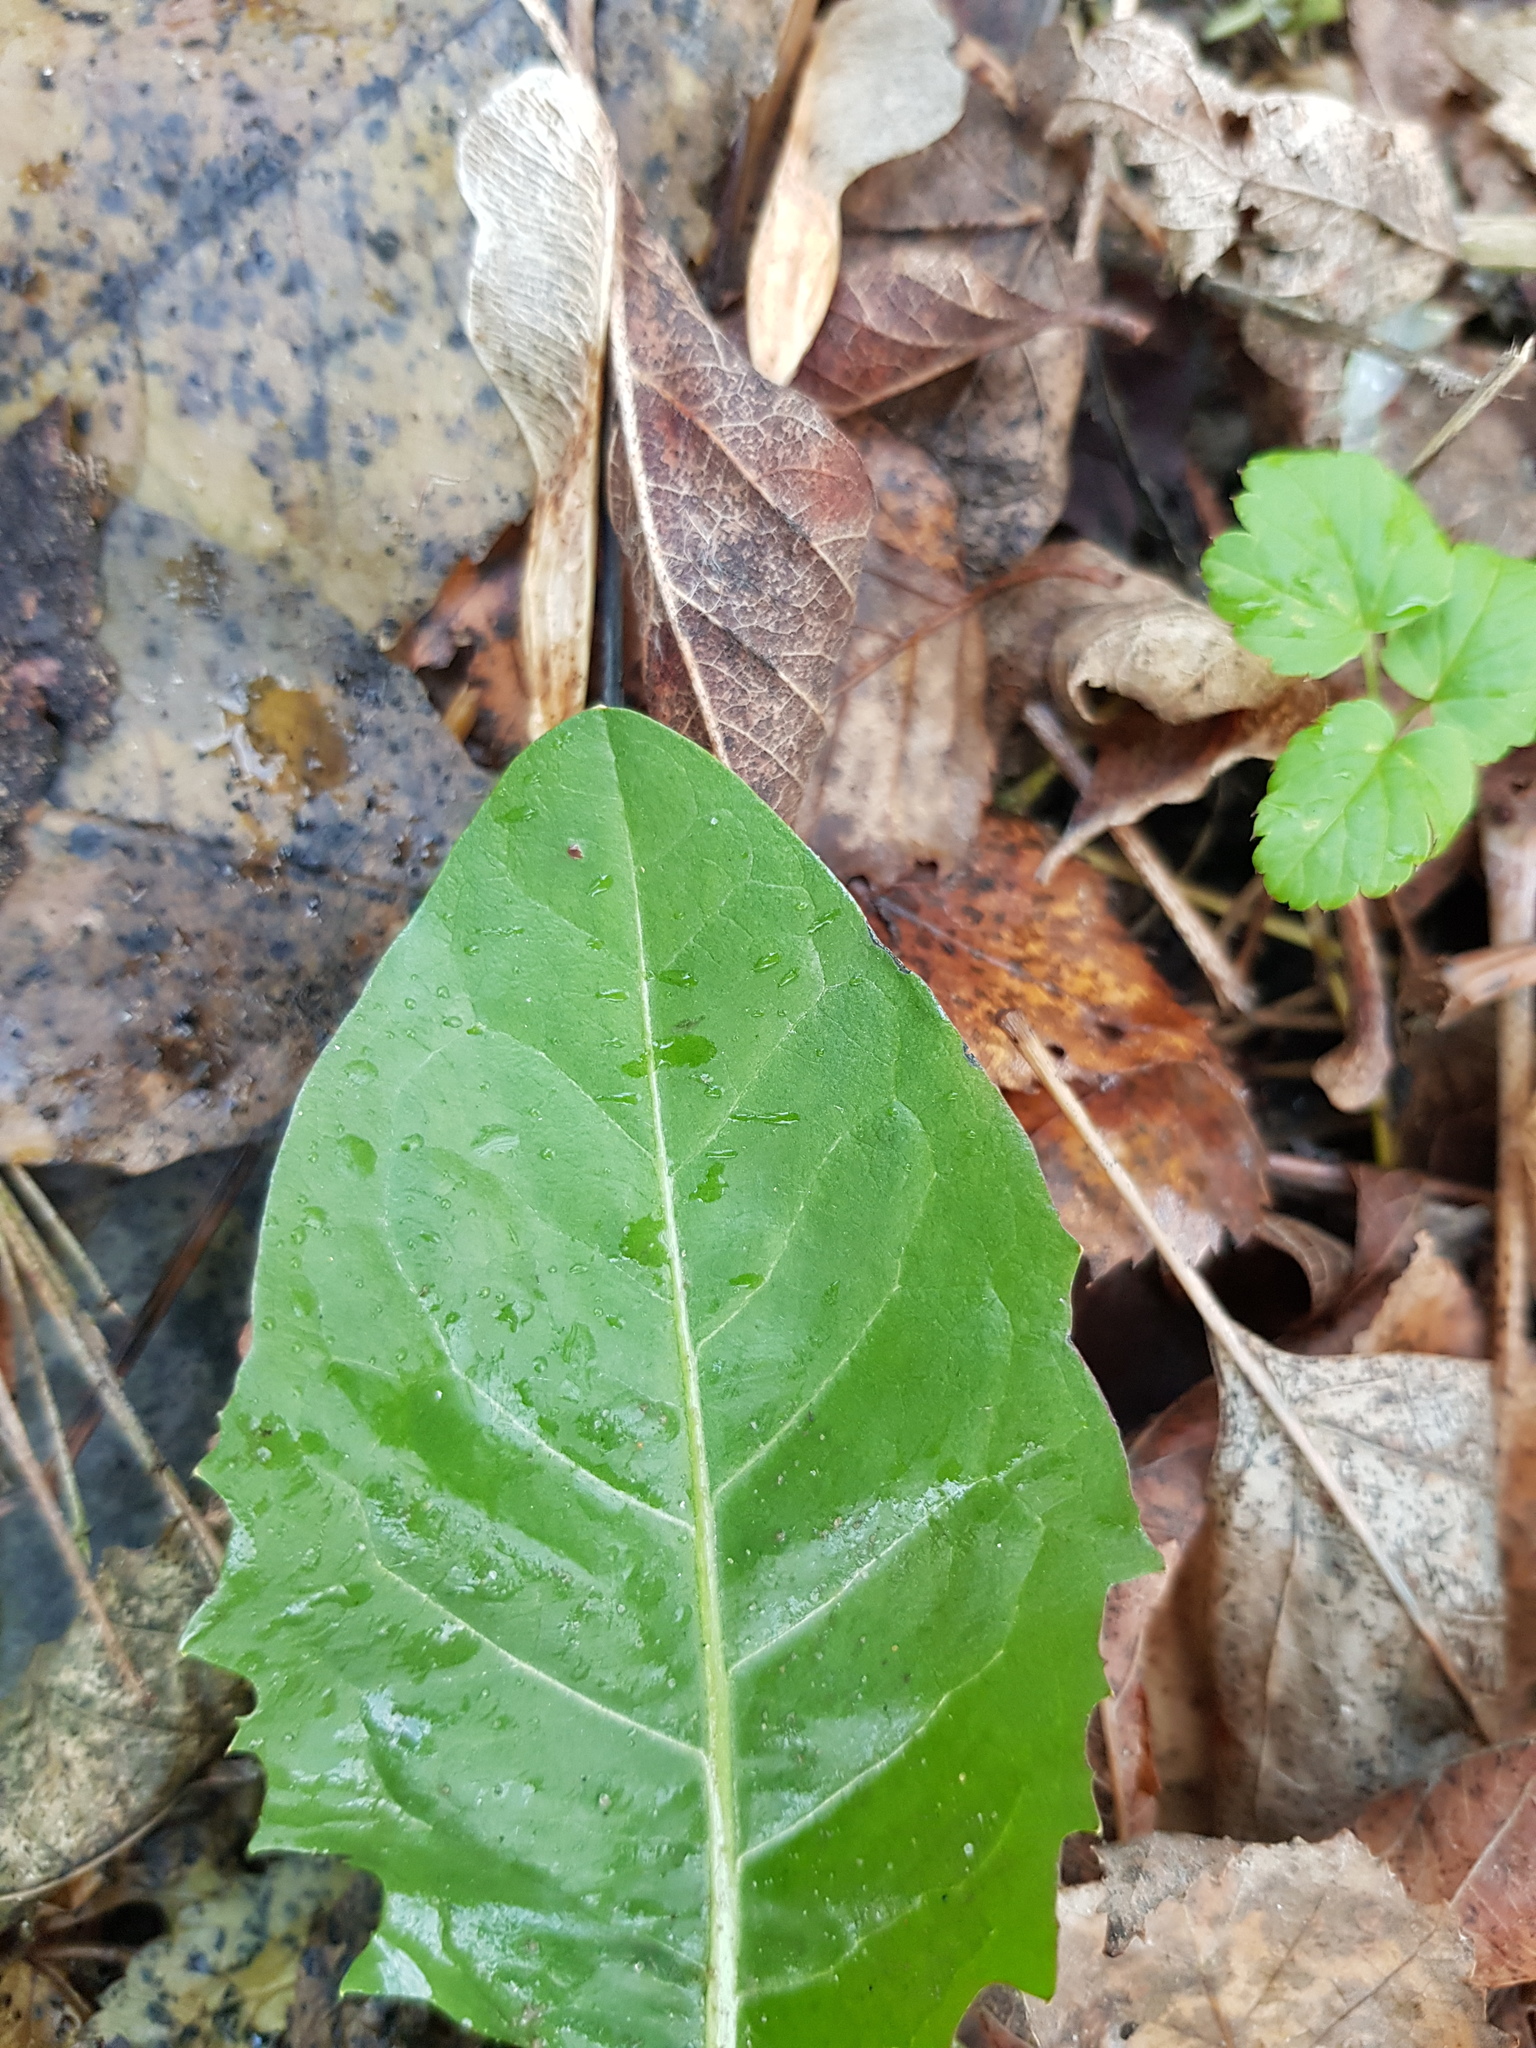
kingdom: Plantae
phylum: Tracheophyta
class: Magnoliopsida
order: Asterales
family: Asteraceae
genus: Taraxacum
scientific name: Taraxacum officinale
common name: Common dandelion
